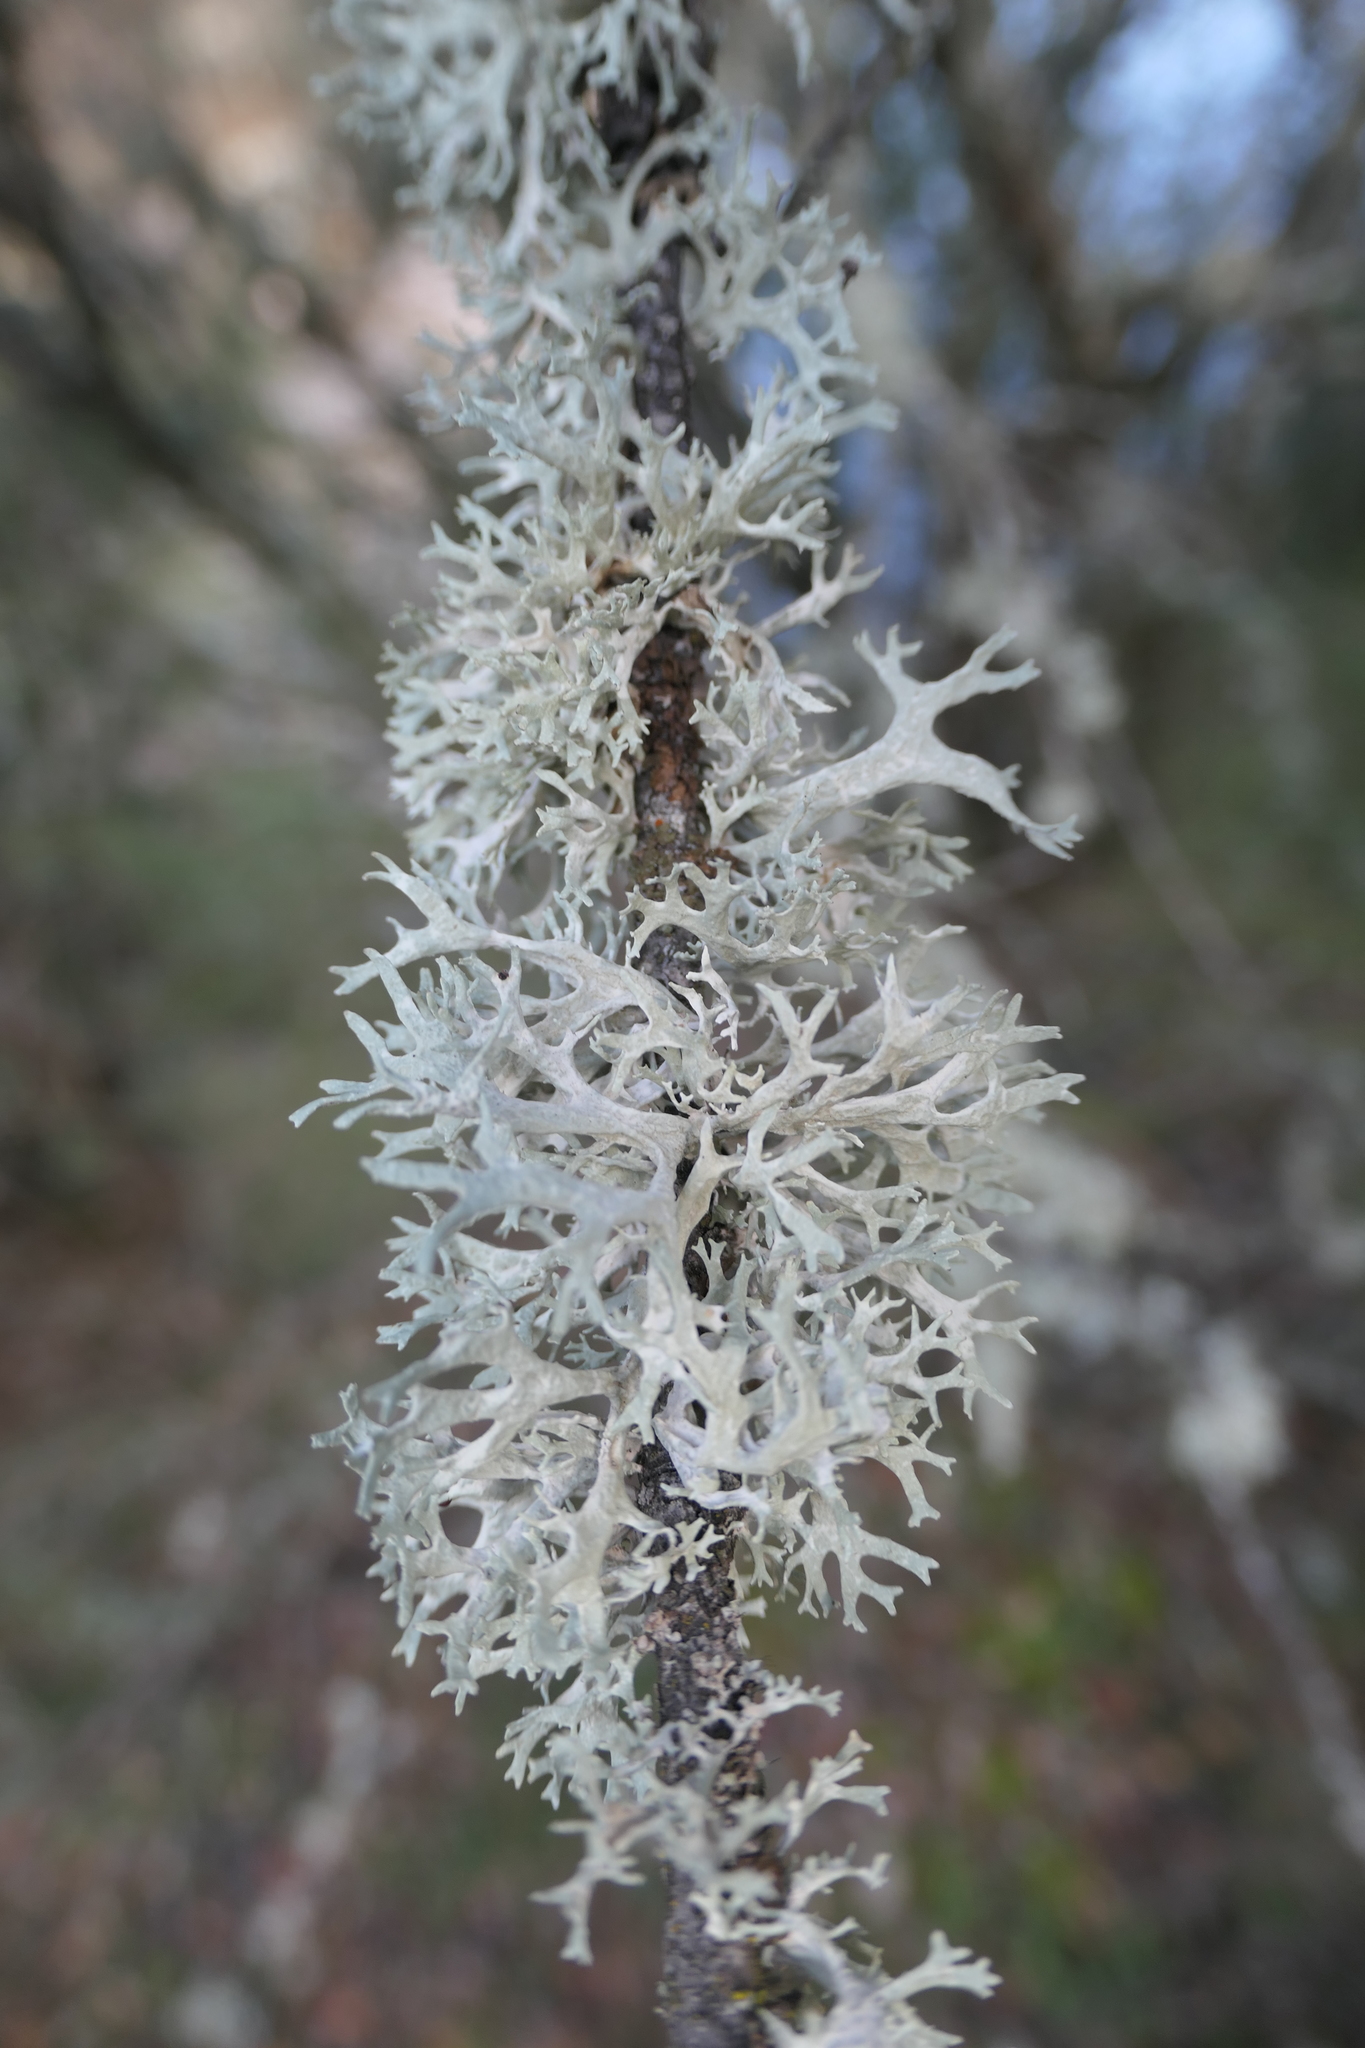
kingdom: Fungi
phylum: Ascomycota
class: Lecanoromycetes
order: Lecanorales
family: Parmeliaceae
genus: Evernia
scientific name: Evernia prunastri
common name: Oak moss
